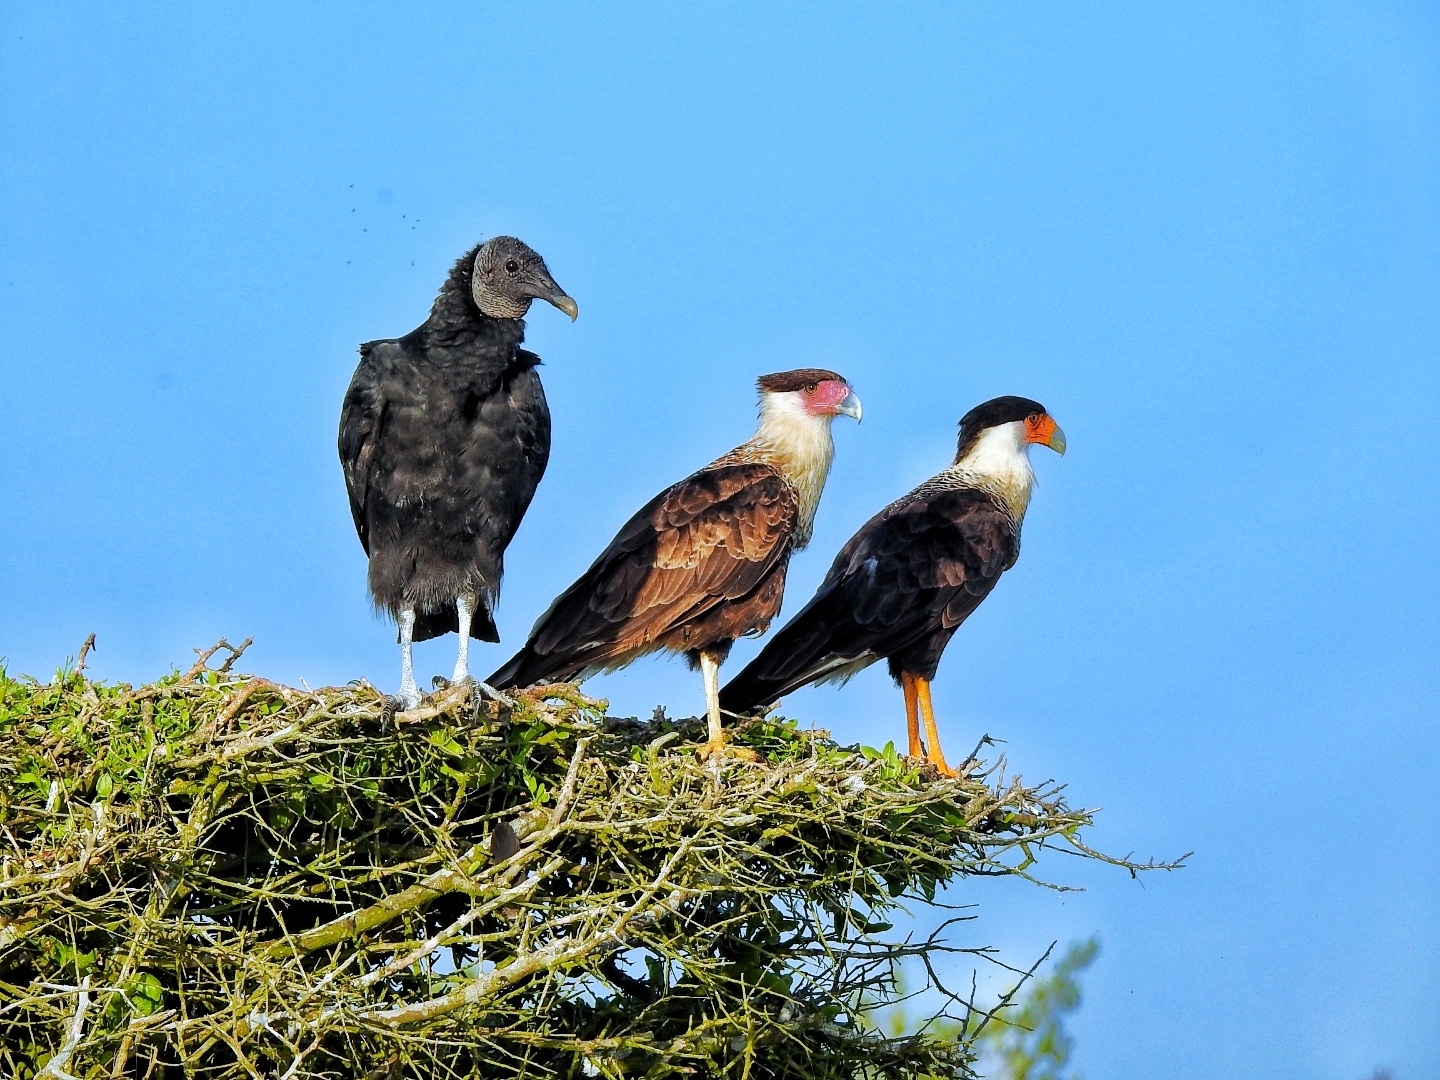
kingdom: Animalia
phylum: Chordata
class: Aves
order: Falconiformes
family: Falconidae
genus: Caracara
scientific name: Caracara plancus
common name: Southern caracara
